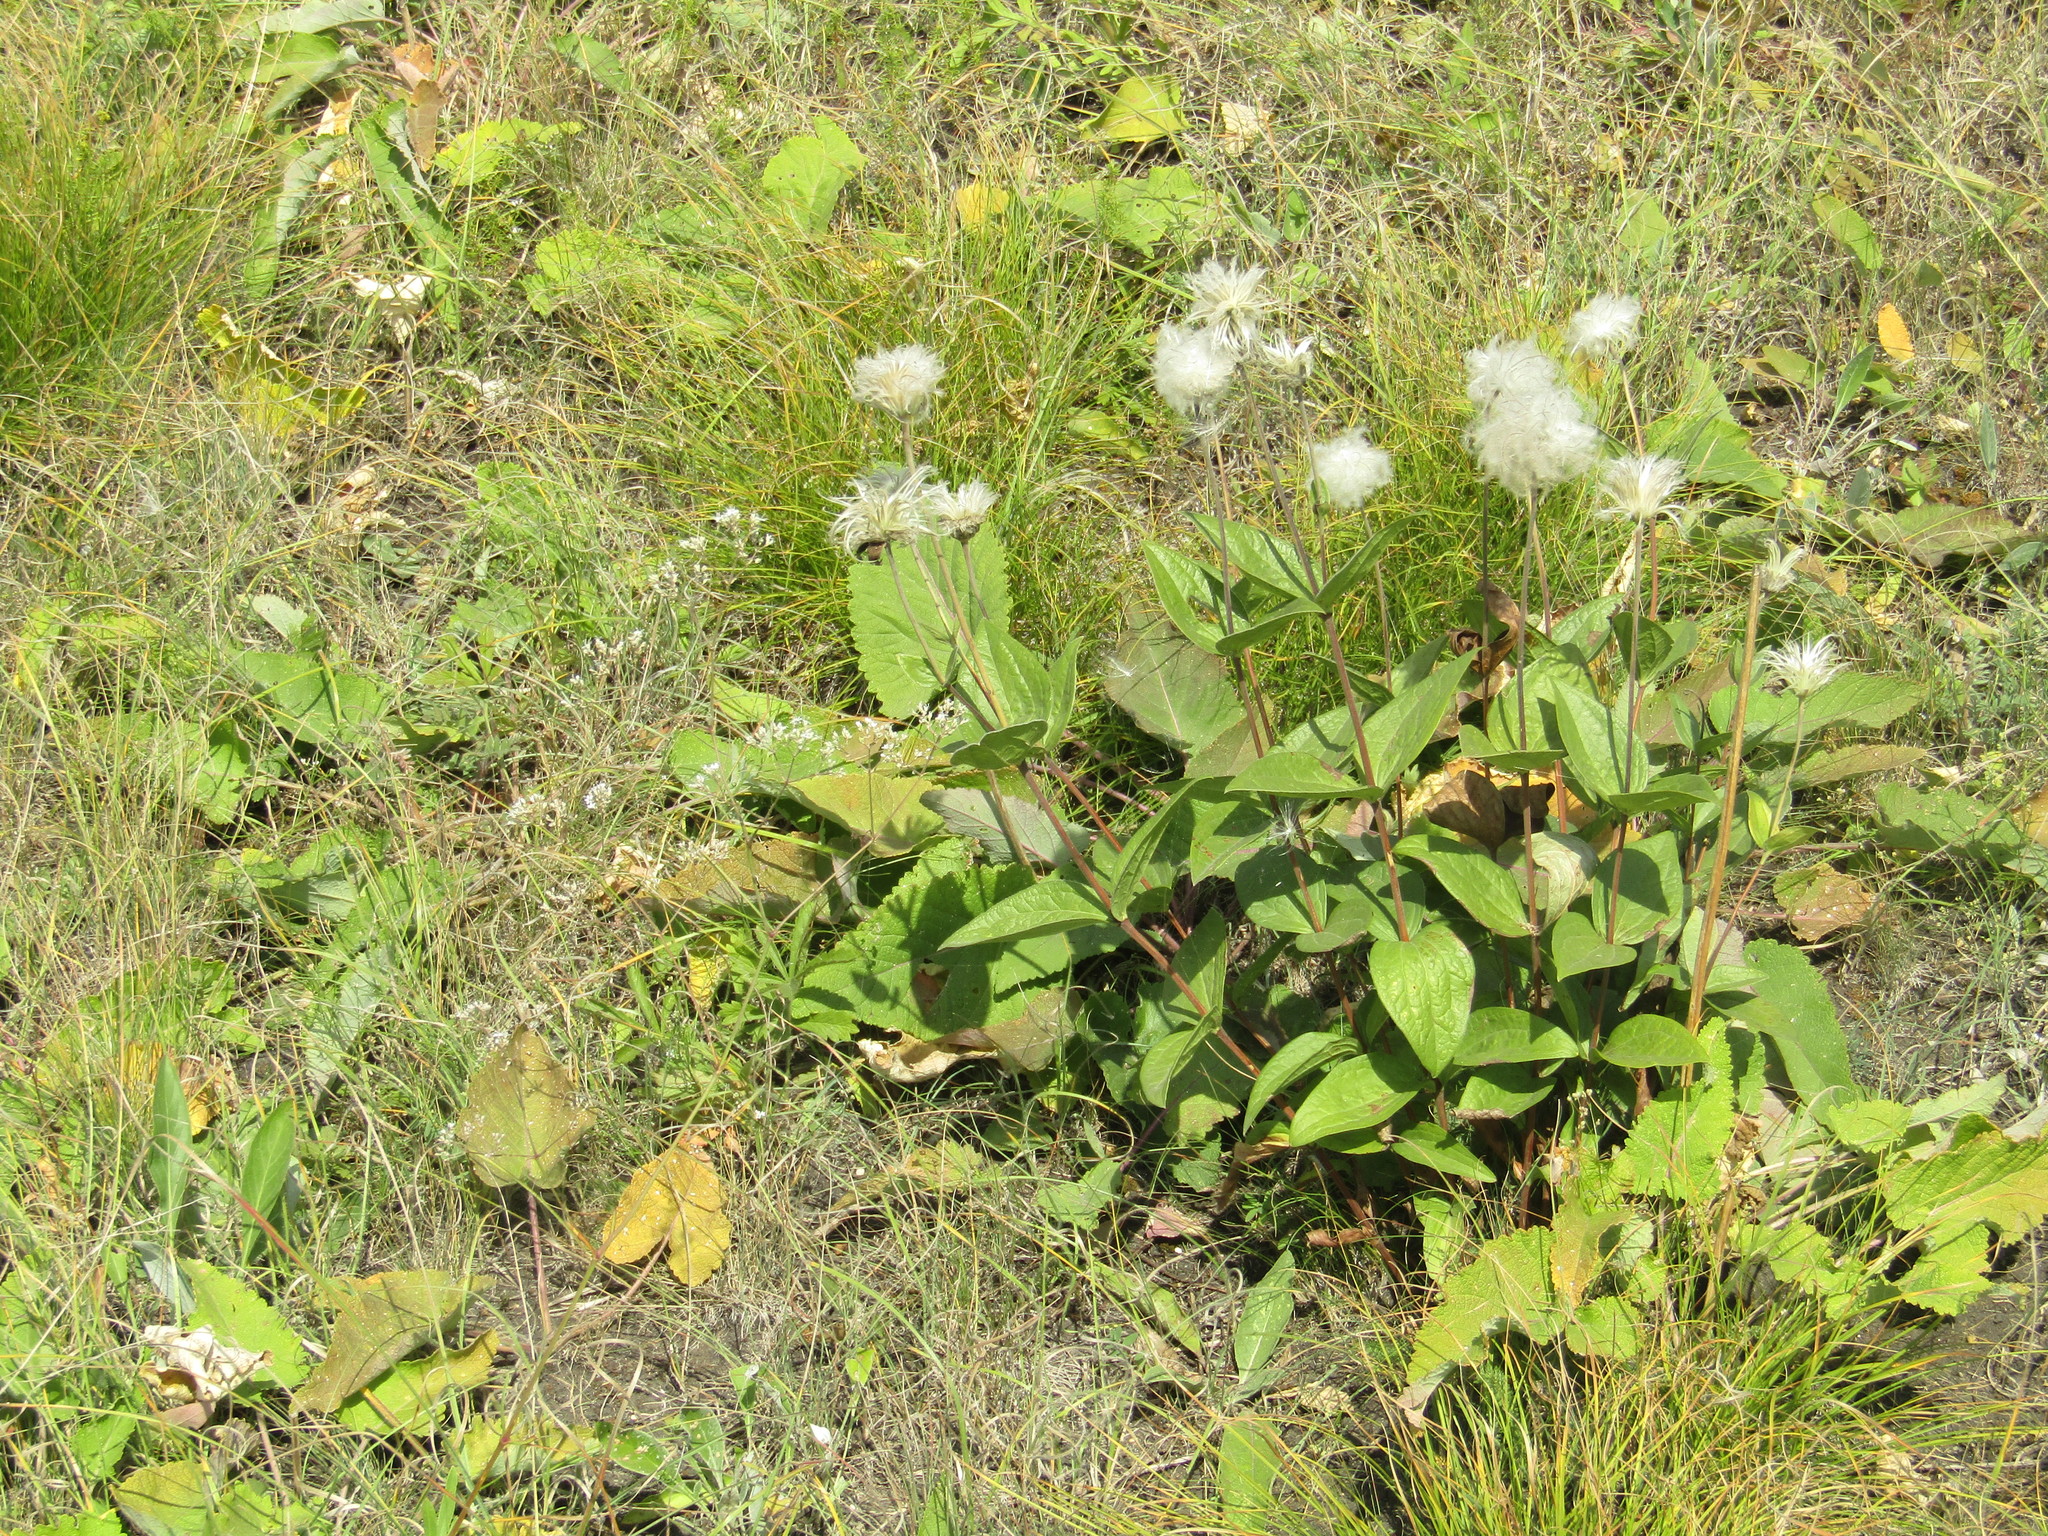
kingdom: Plantae
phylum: Tracheophyta
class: Magnoliopsida
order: Ranunculales
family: Ranunculaceae
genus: Clematis
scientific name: Clematis integrifolia
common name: Solitary clematis
